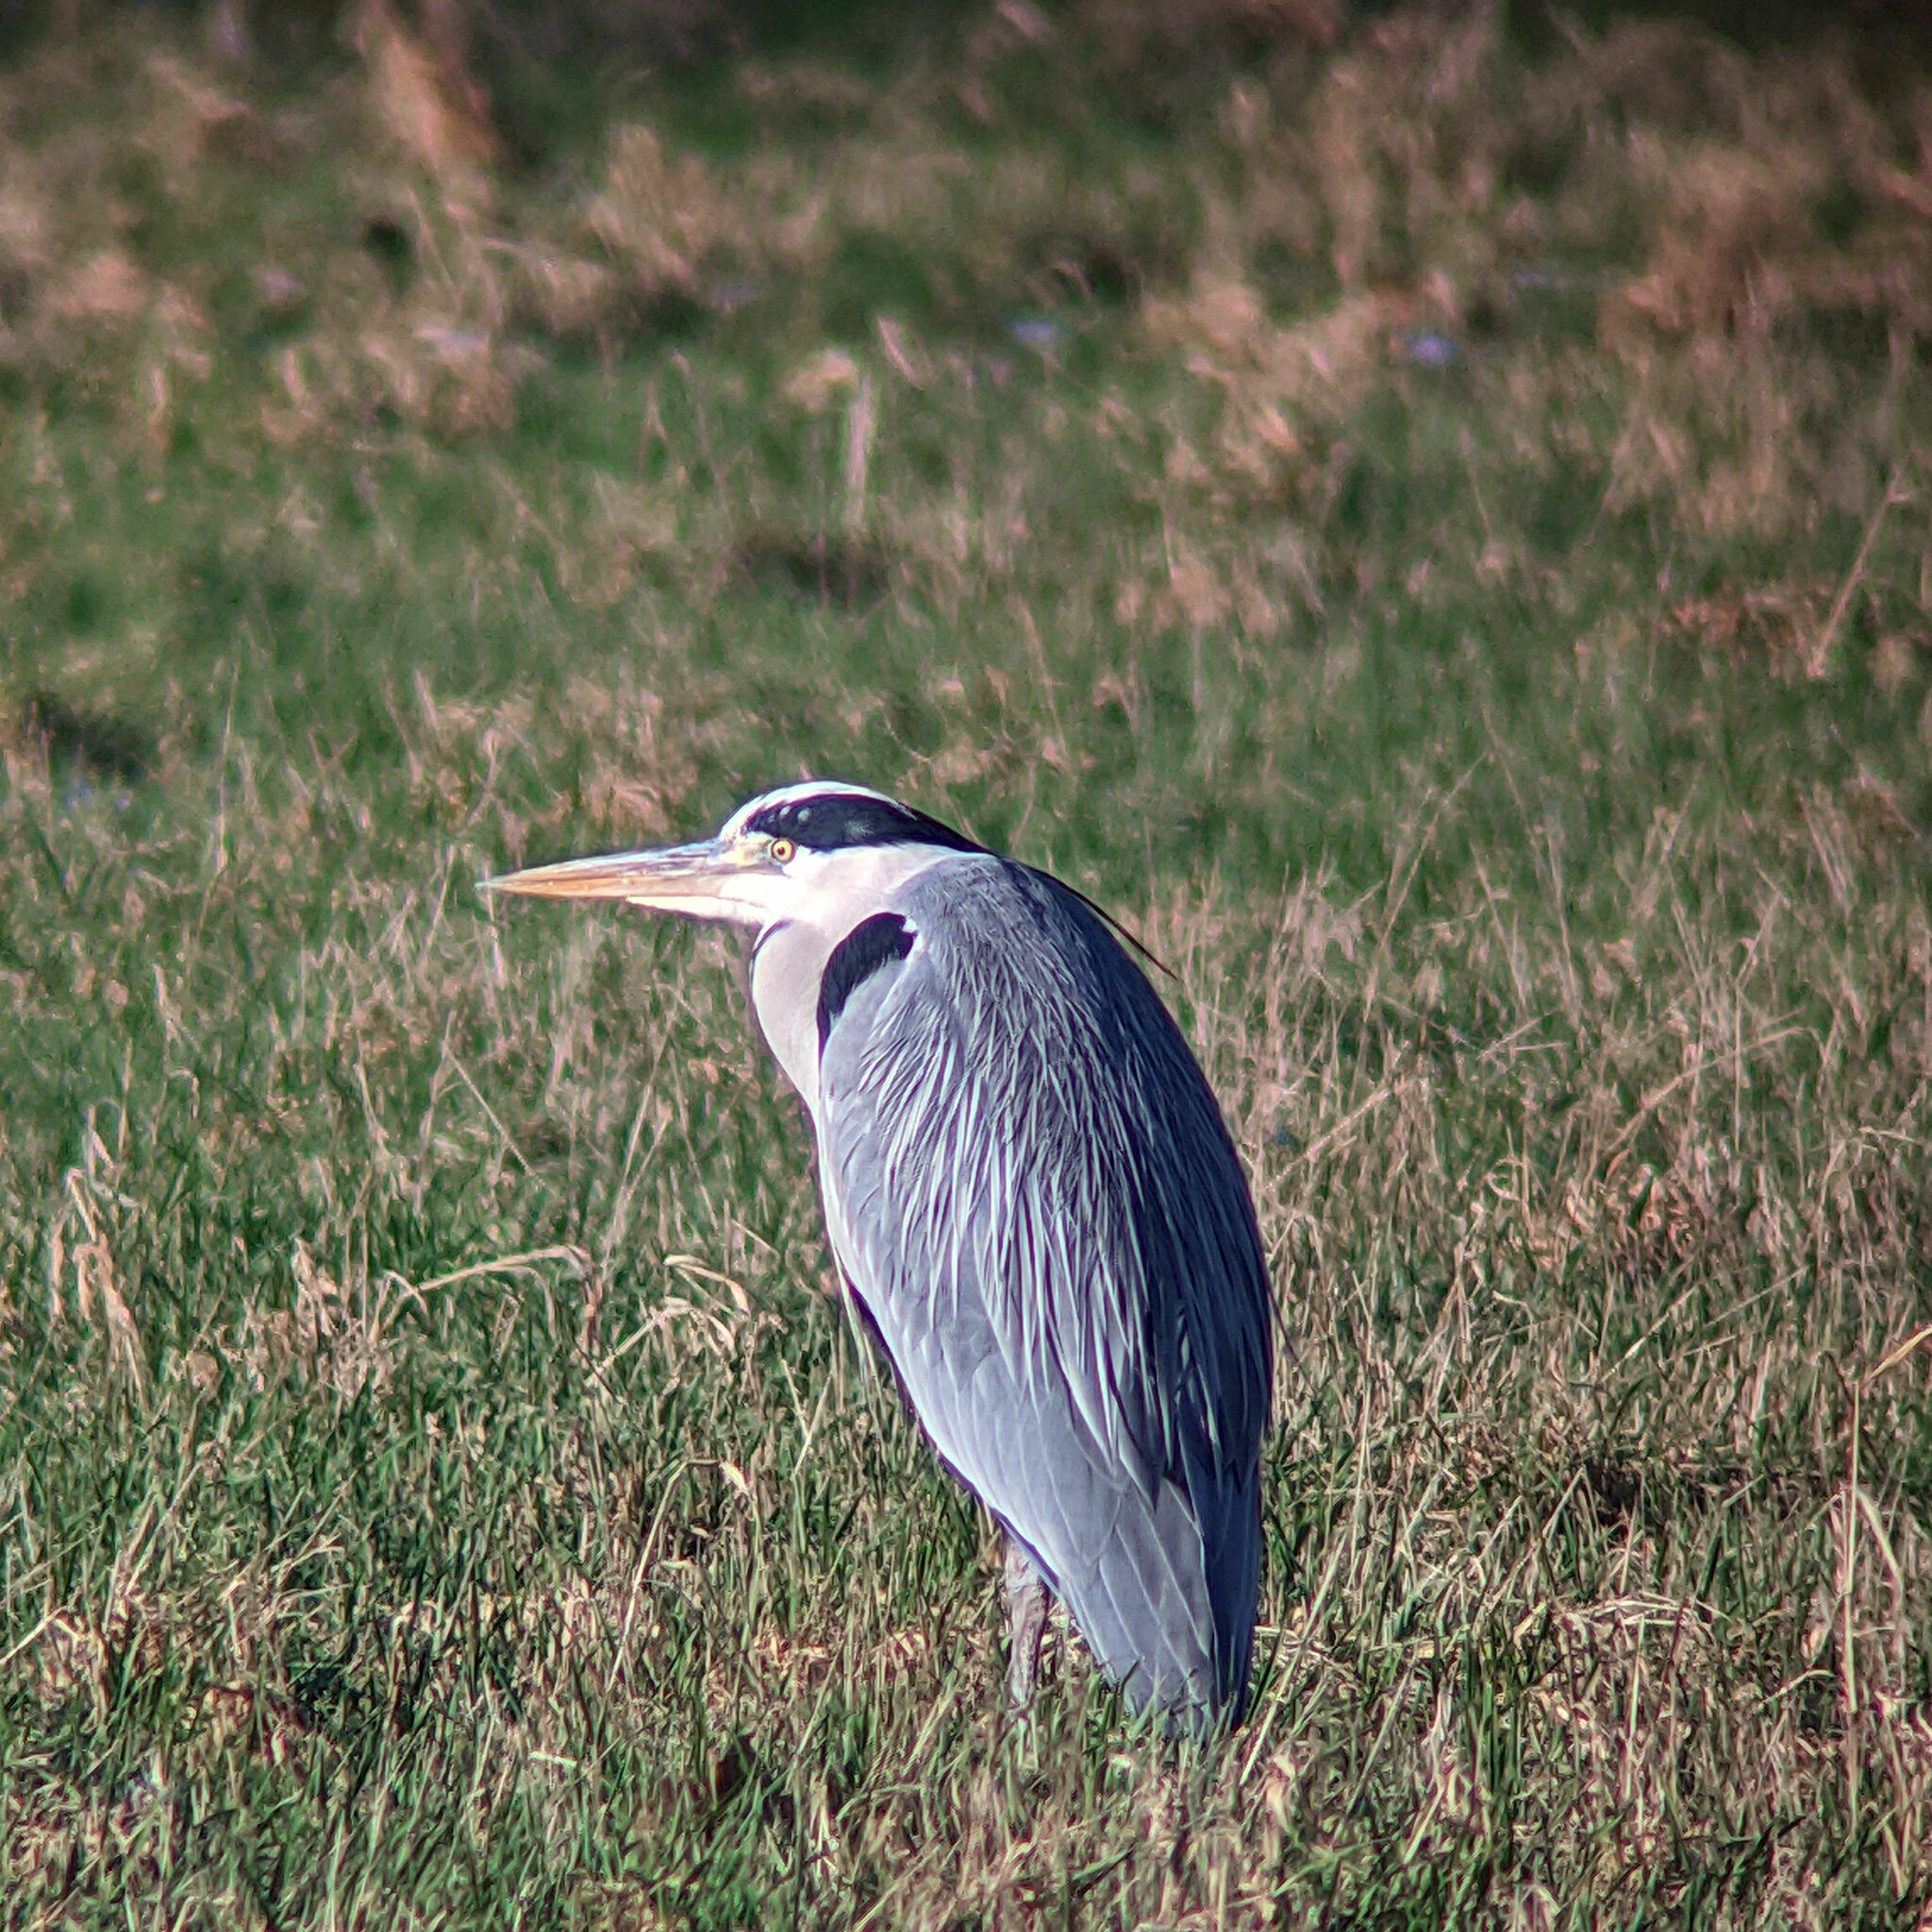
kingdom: Animalia
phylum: Chordata
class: Aves
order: Pelecaniformes
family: Ardeidae
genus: Ardea
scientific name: Ardea cinerea
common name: Grey heron
